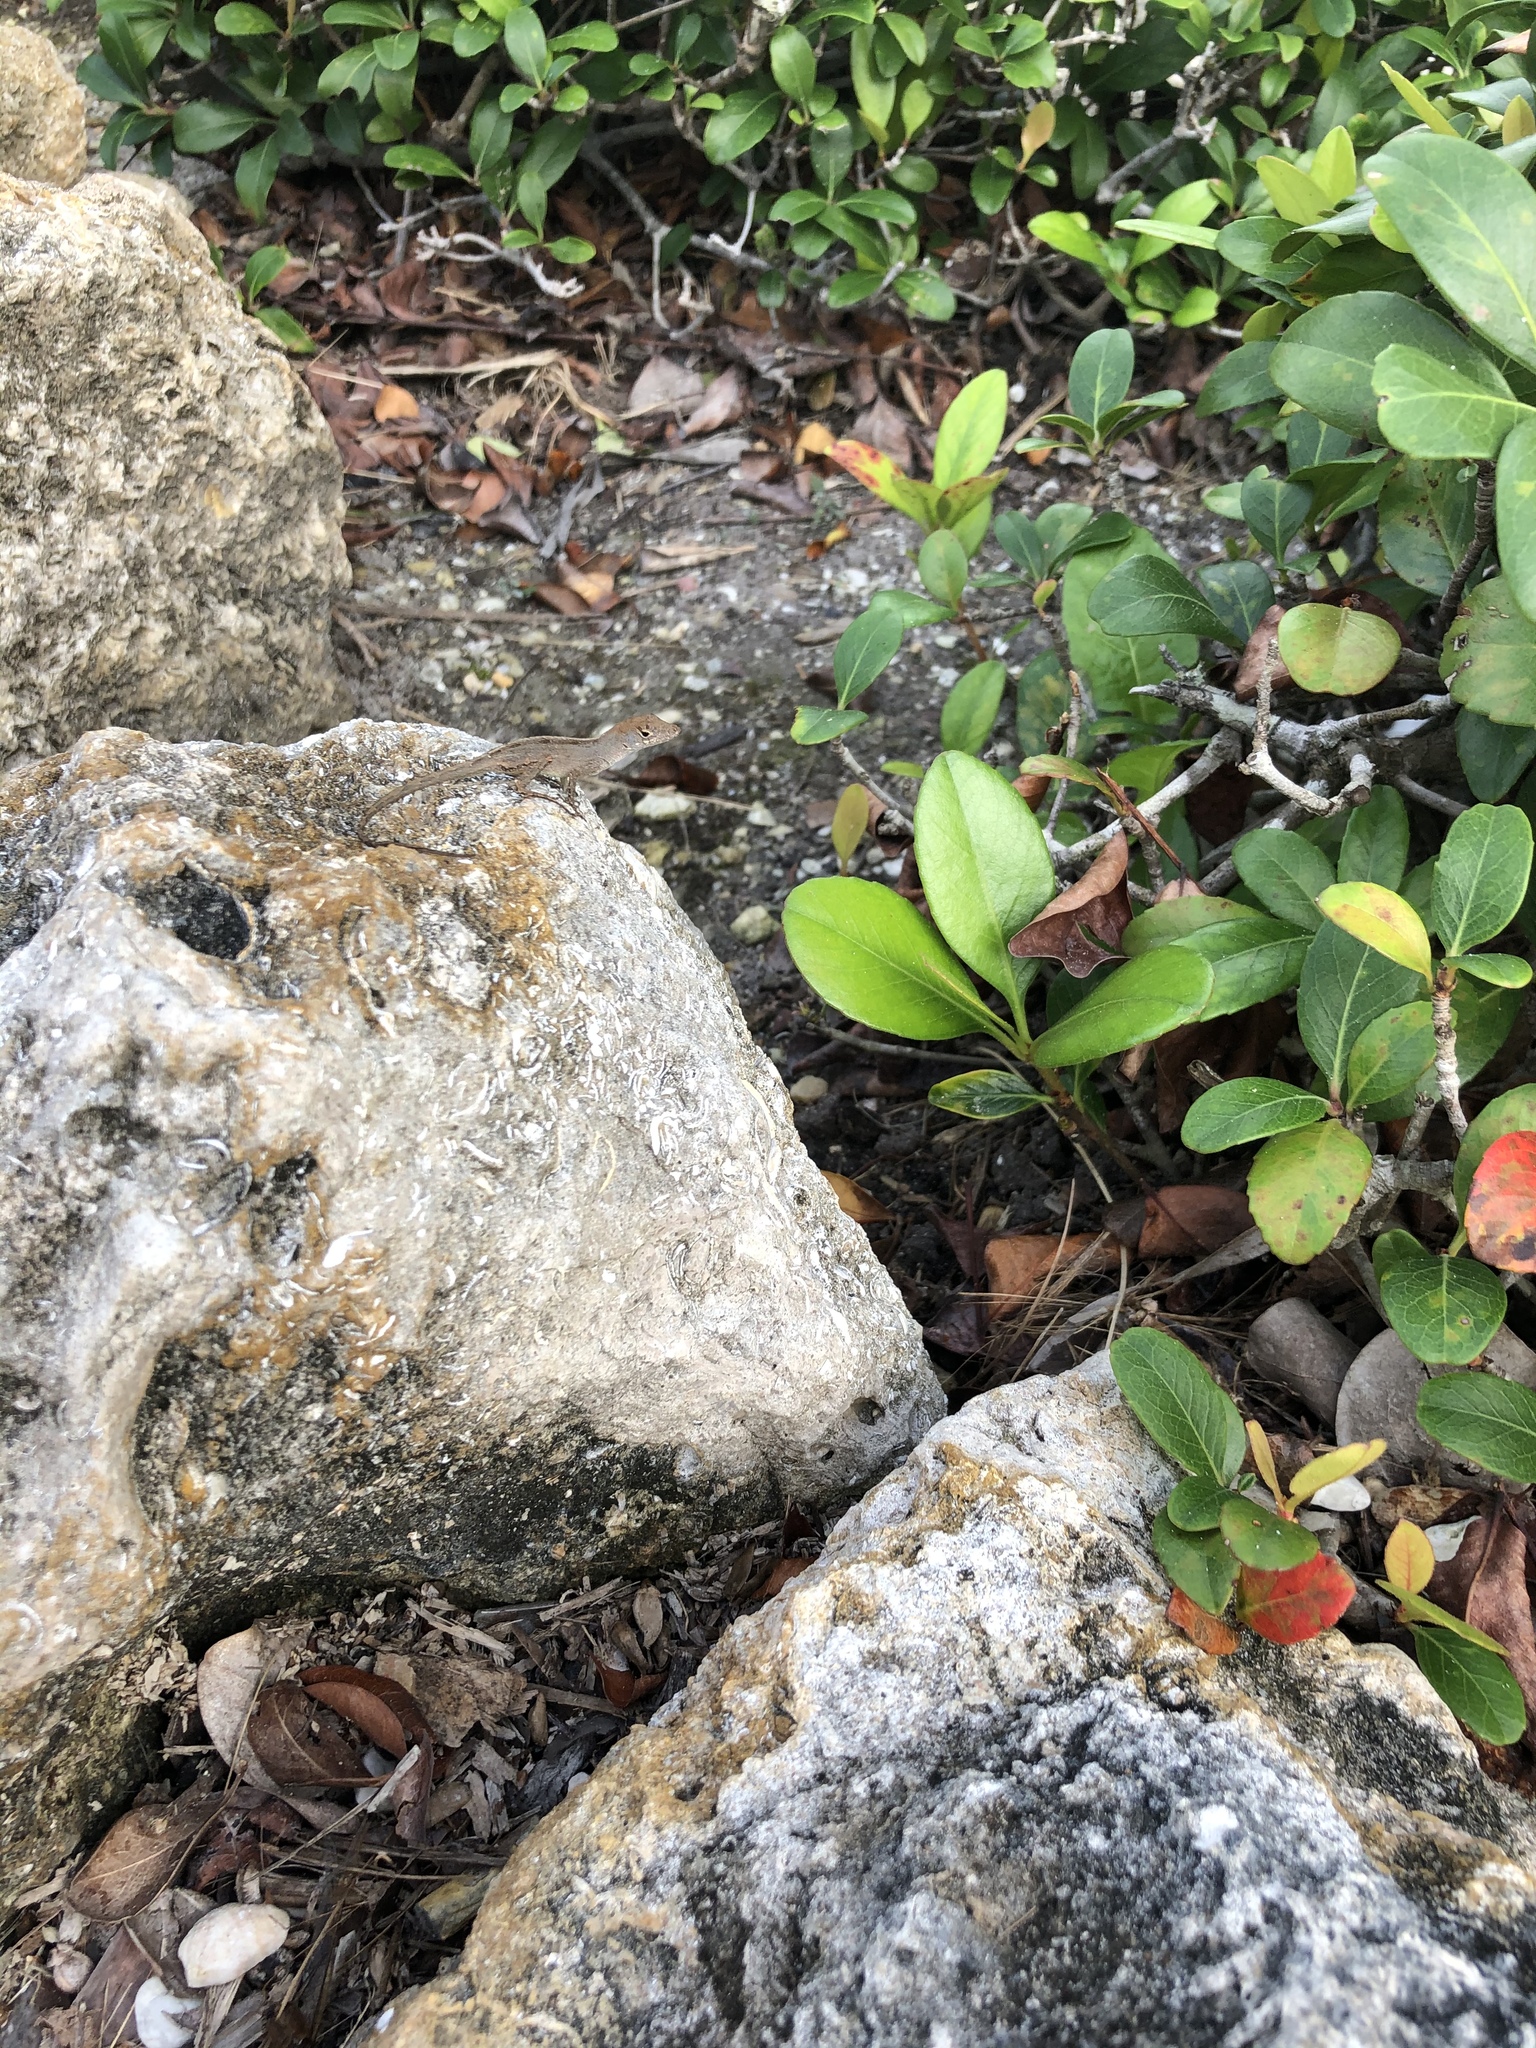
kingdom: Animalia
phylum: Chordata
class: Squamata
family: Dactyloidae
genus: Anolis
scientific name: Anolis sagrei
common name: Brown anole
